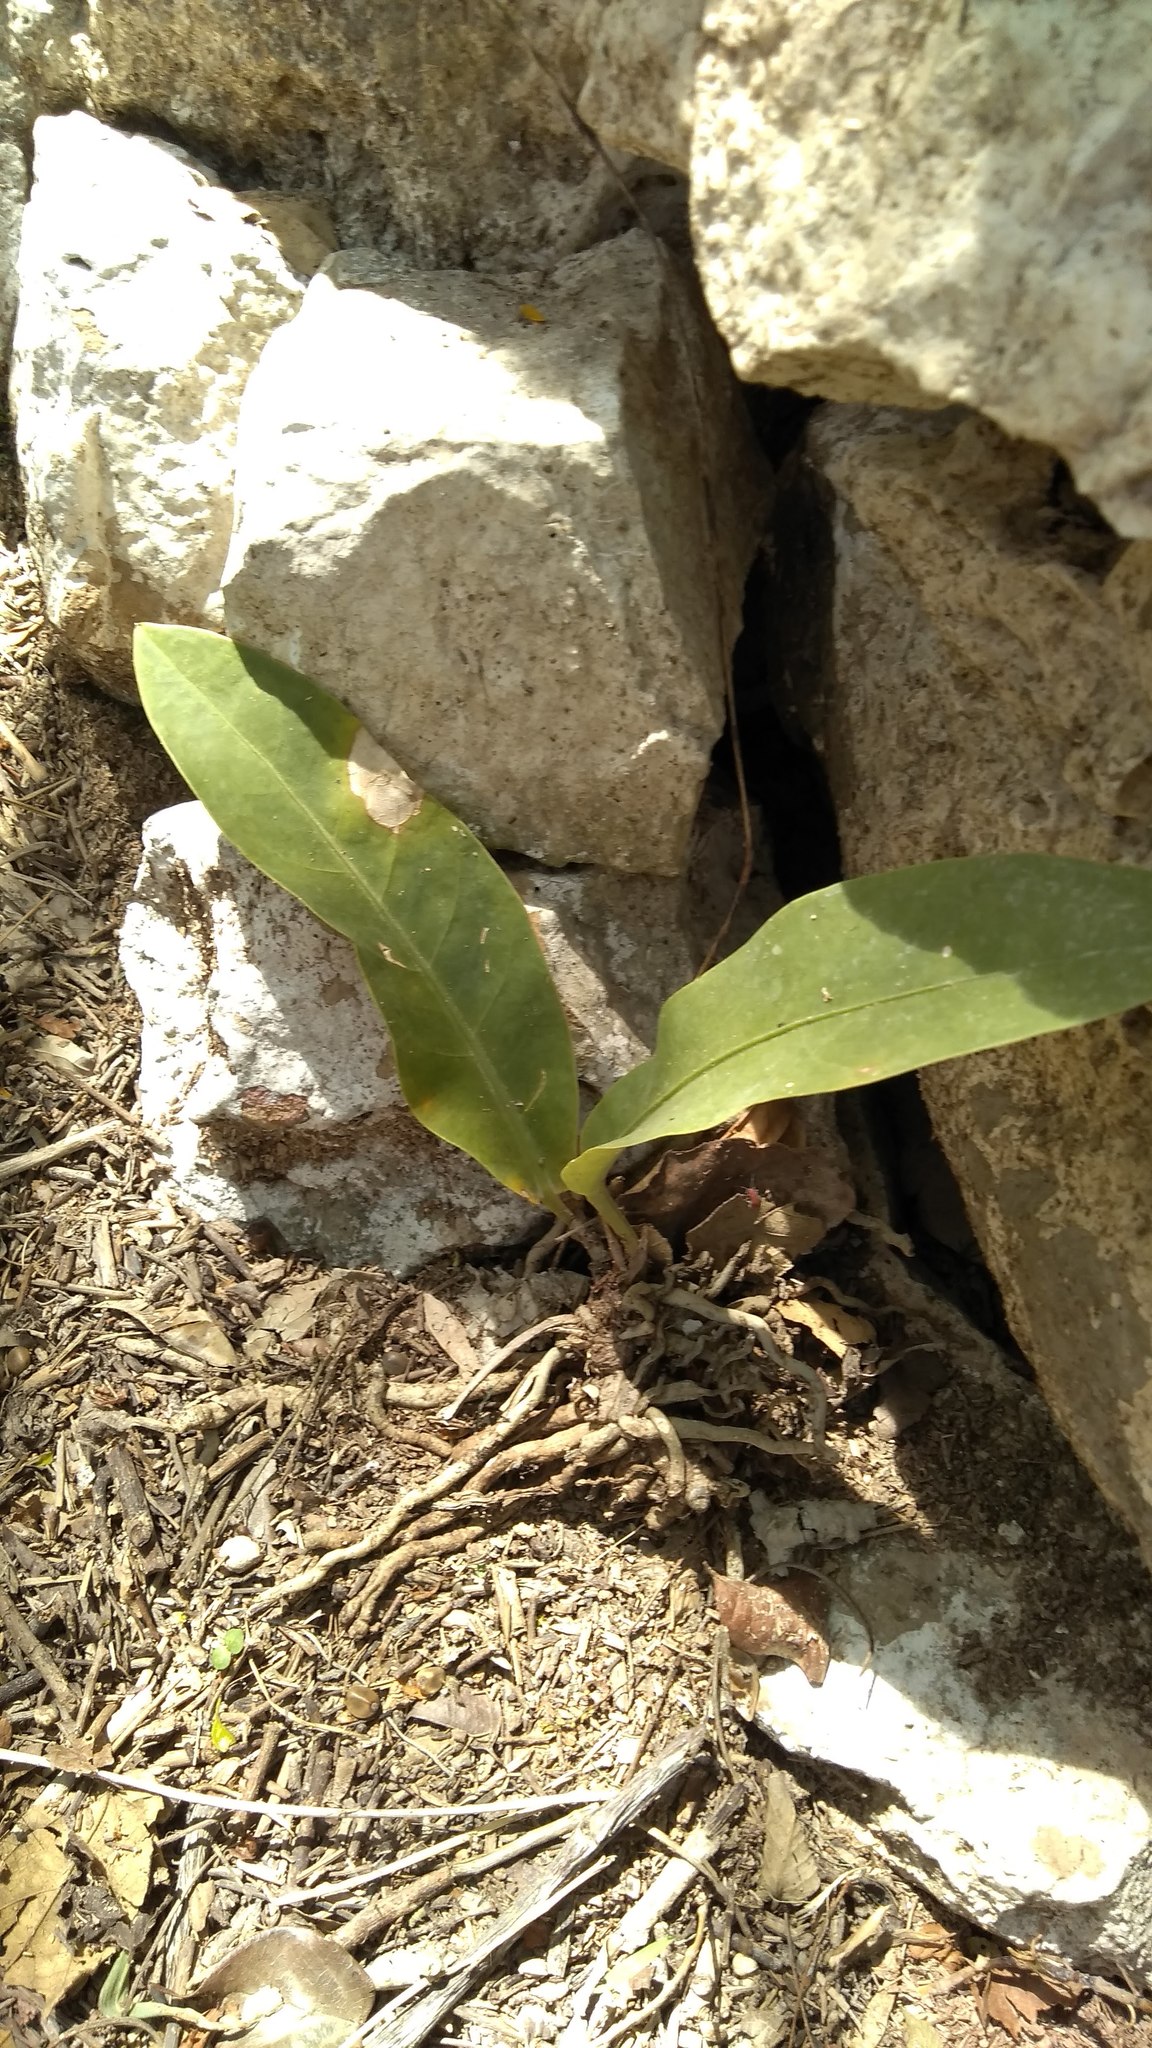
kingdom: Plantae
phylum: Tracheophyta
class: Liliopsida
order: Alismatales
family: Araceae
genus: Anthurium
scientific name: Anthurium schlechtendalii
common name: Laceleaf
